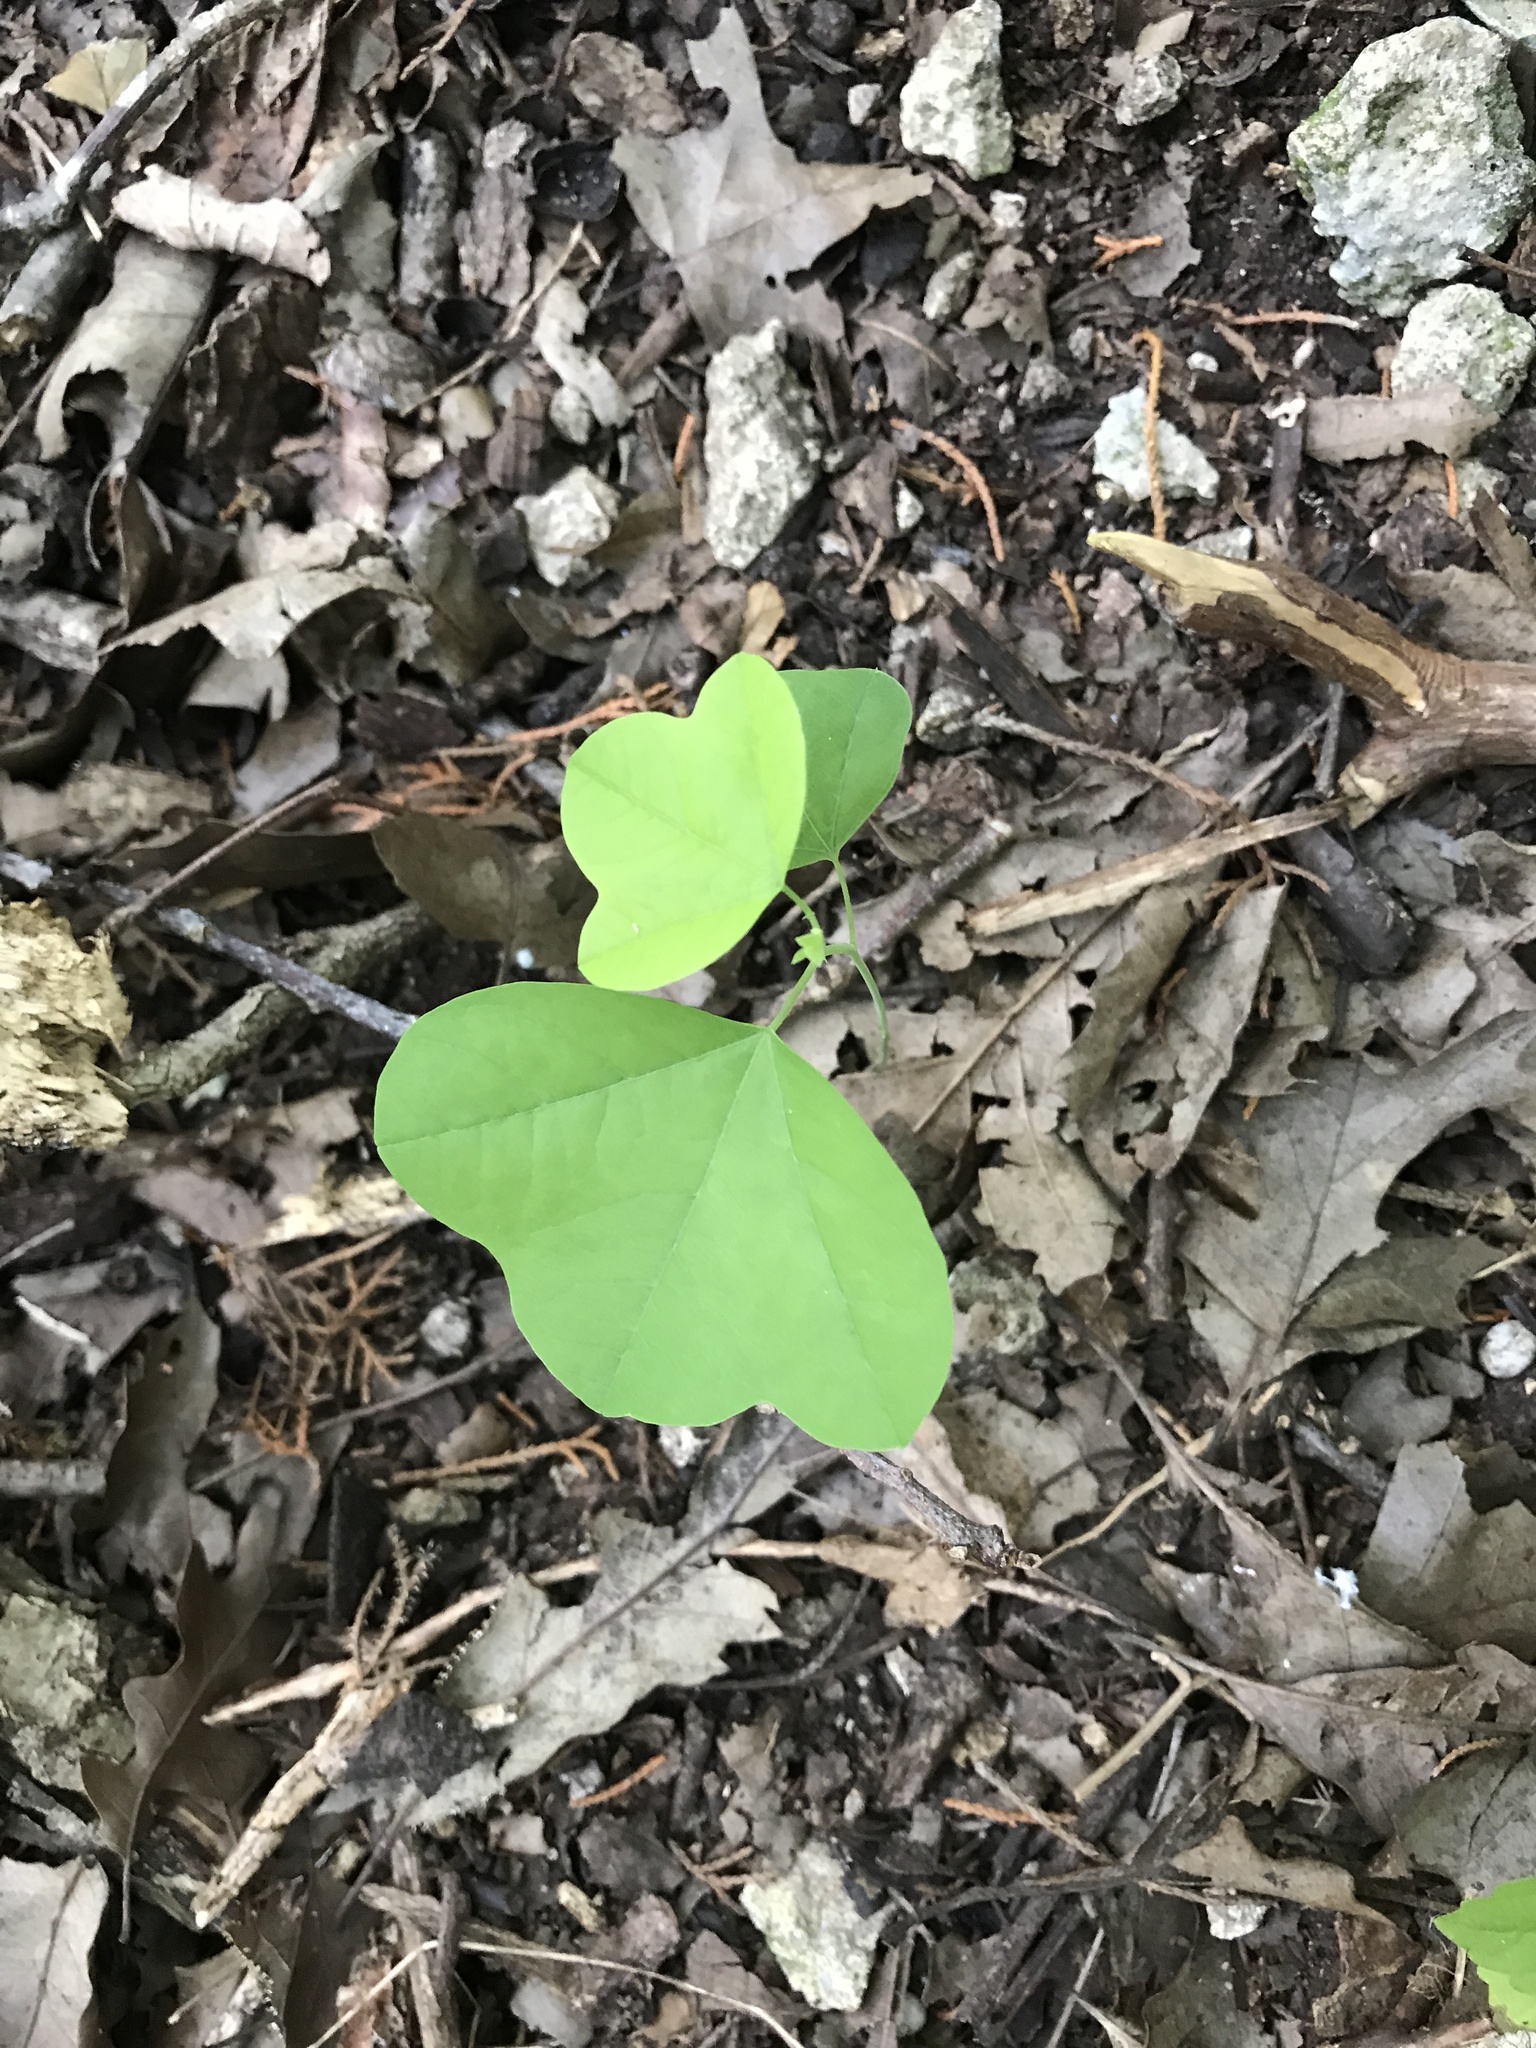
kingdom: Plantae
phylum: Tracheophyta
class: Magnoliopsida
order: Malpighiales
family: Passifloraceae
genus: Passiflora
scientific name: Passiflora lutea
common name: Yellow passionflower
